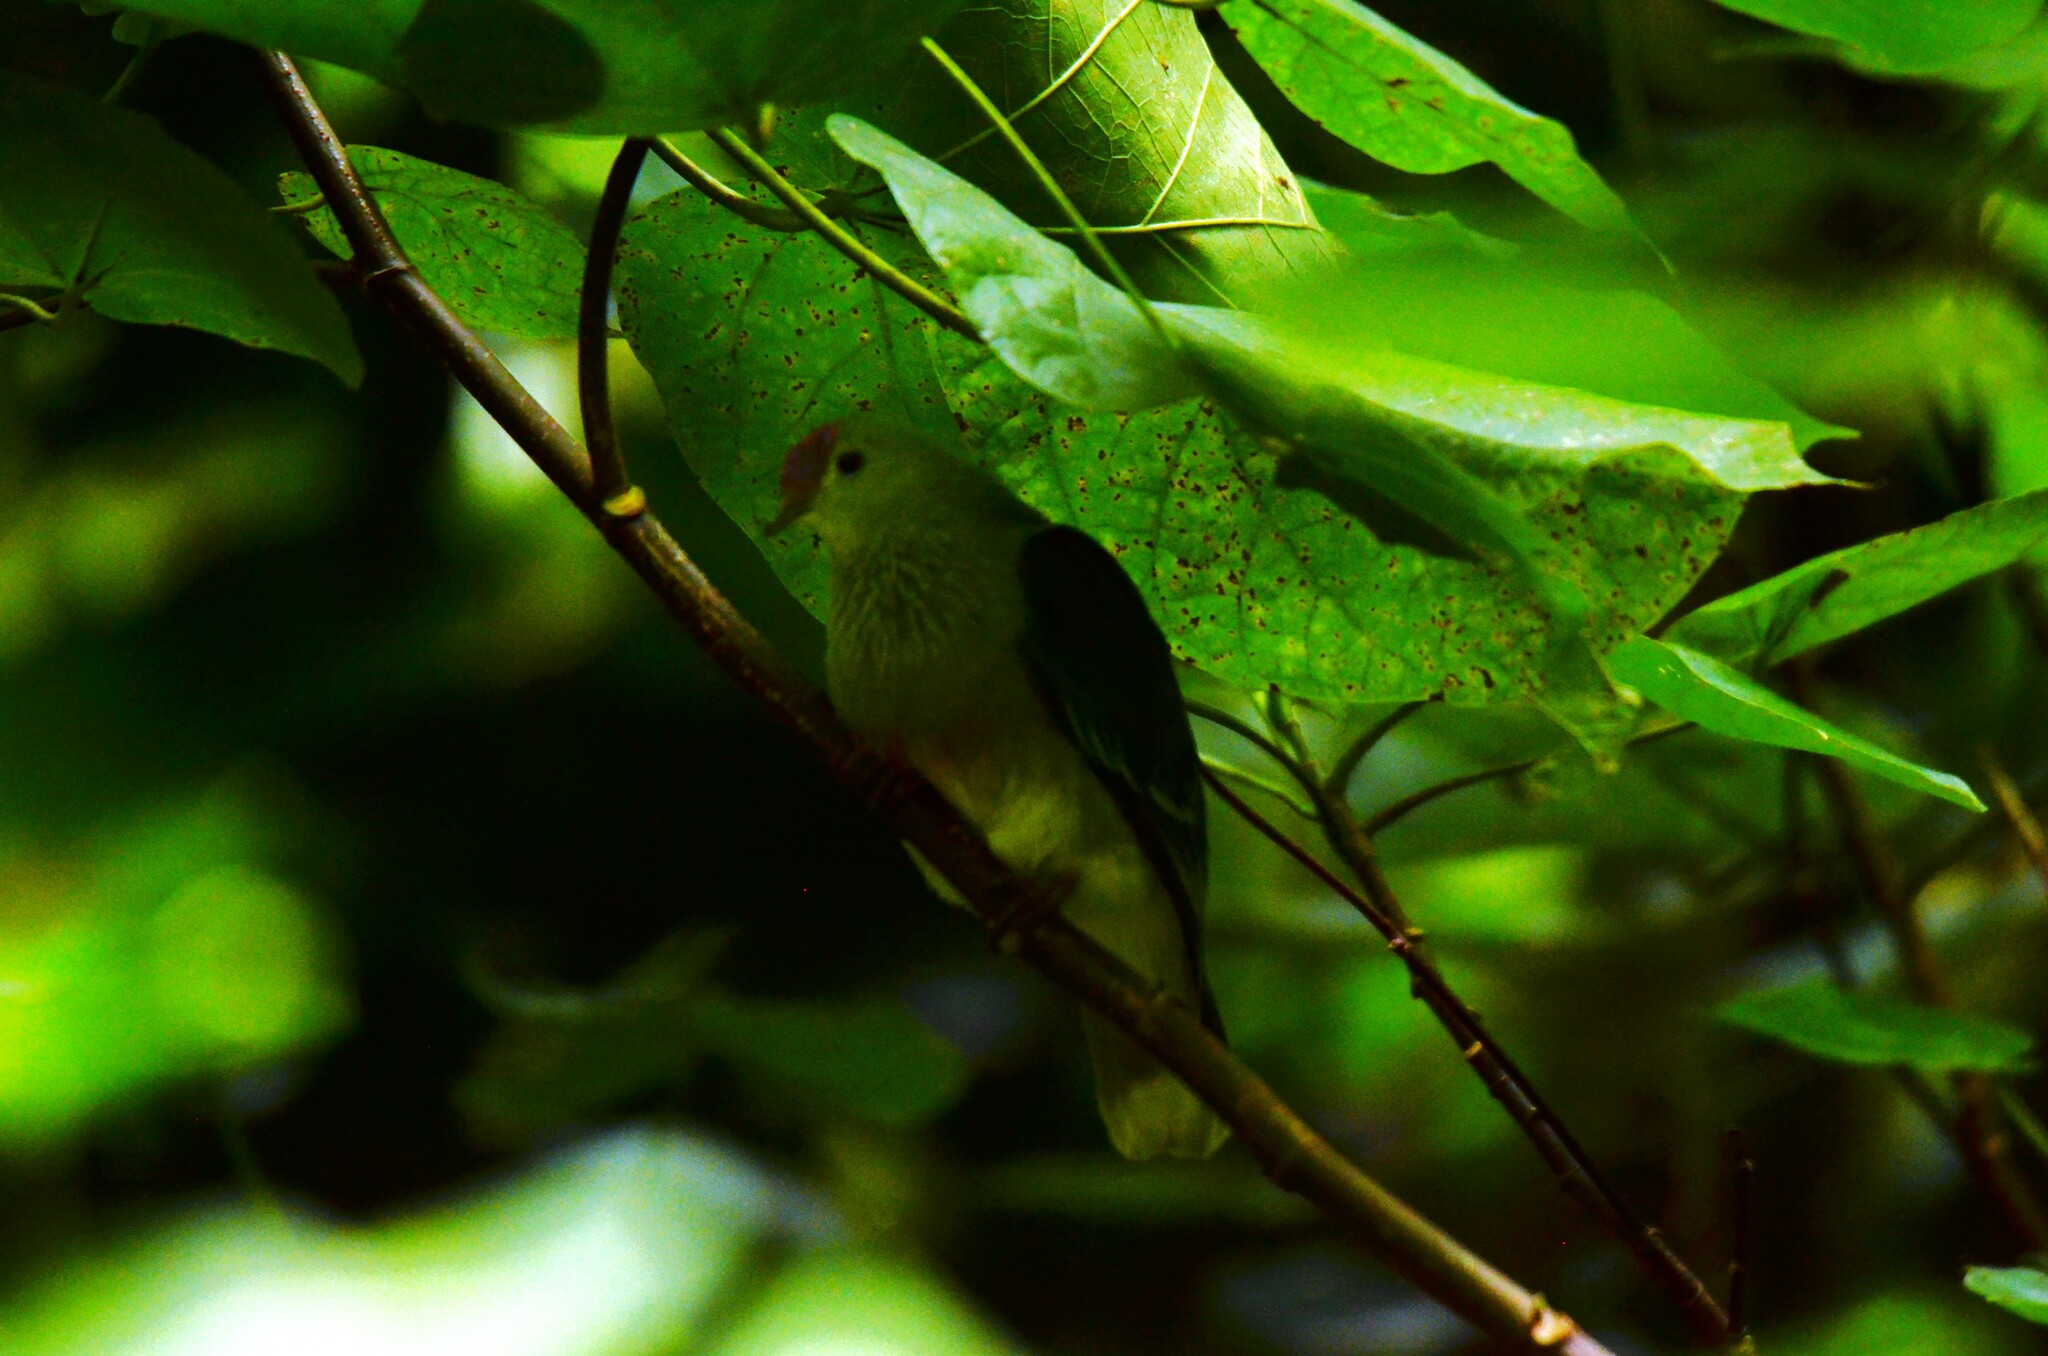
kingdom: Animalia
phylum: Chordata
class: Aves
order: Columbiformes
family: Columbidae
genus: Ptilinopus
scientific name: Ptilinopus rarotongensis
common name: Lilac-crowned fruit dove
